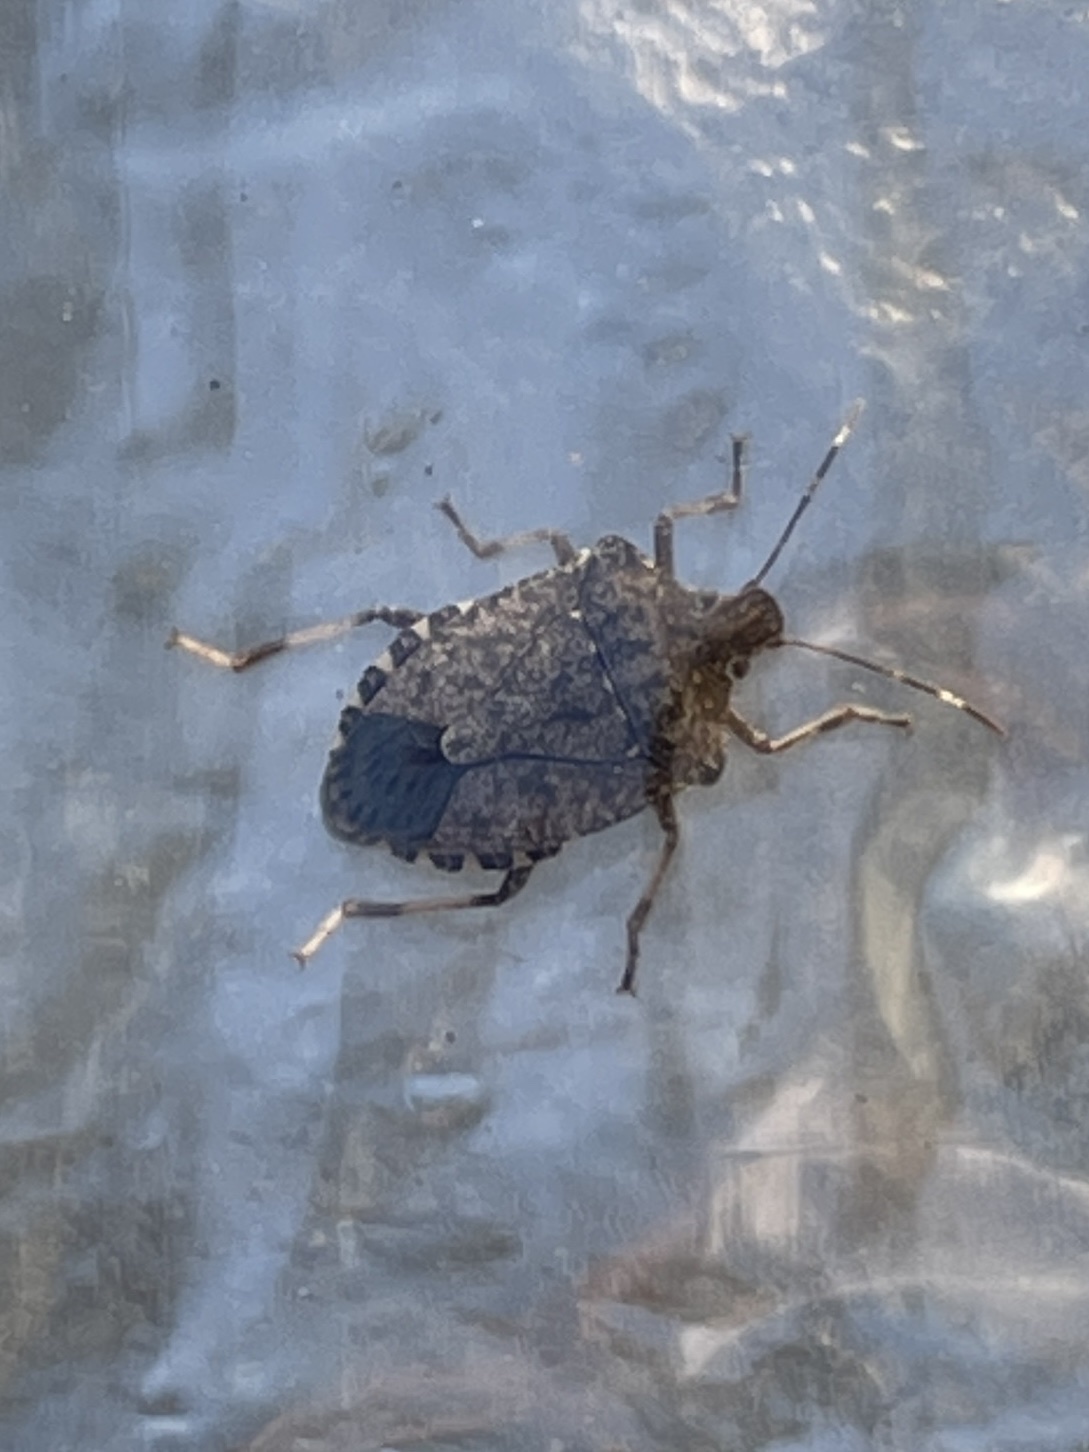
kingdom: Animalia
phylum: Arthropoda
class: Insecta
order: Hemiptera
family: Pentatomidae
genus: Halyomorpha
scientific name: Halyomorpha halys
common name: Brown marmorated stink bug
